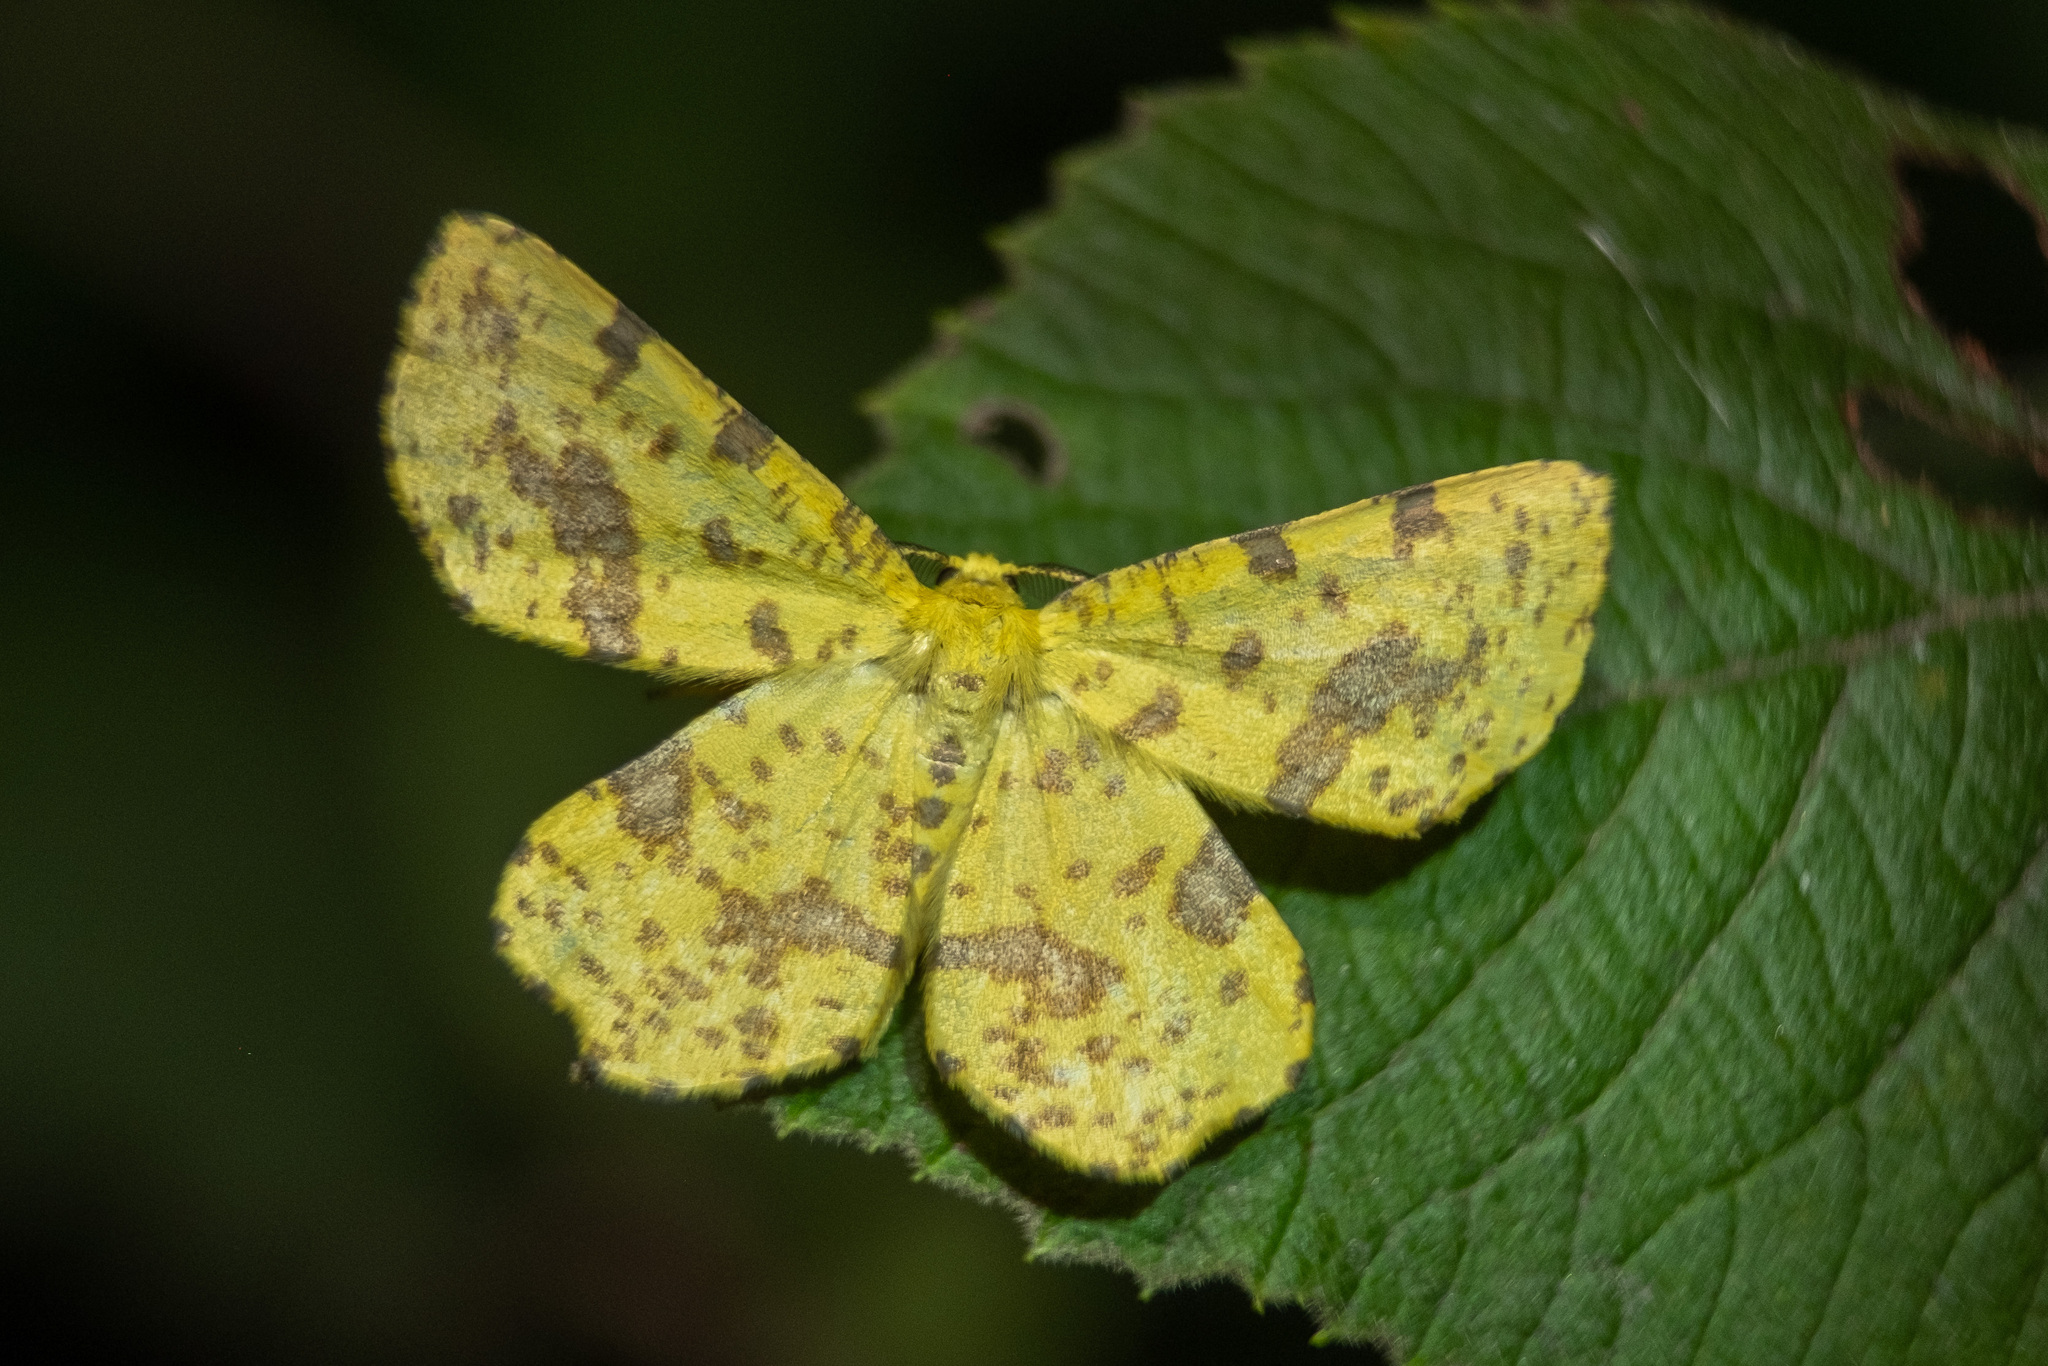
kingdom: Animalia
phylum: Arthropoda
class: Insecta
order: Lepidoptera
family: Geometridae
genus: Xanthotype
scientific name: Xanthotype
